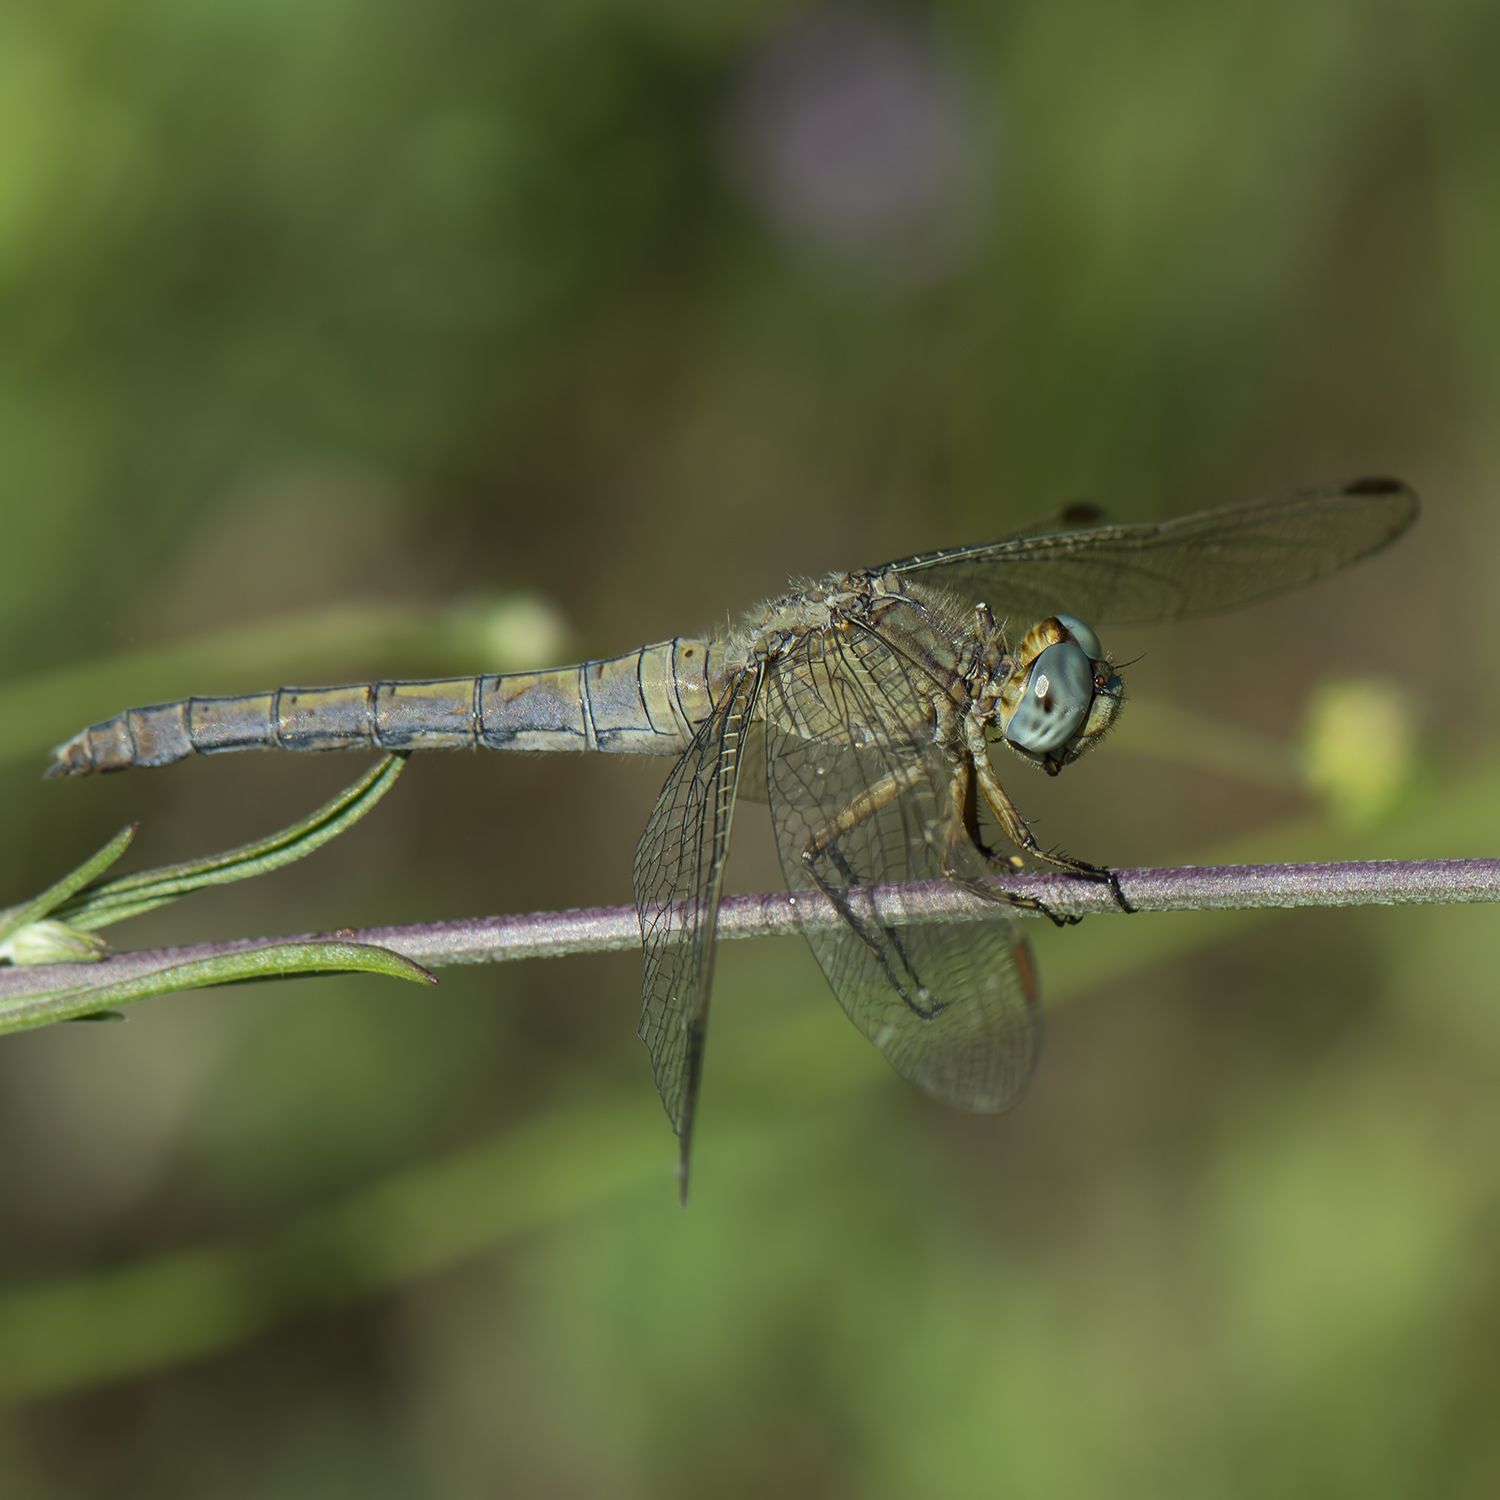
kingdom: Animalia
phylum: Arthropoda
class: Insecta
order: Odonata
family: Libellulidae
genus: Orthetrum
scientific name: Orthetrum coerulescens
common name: Keeled skimmer
